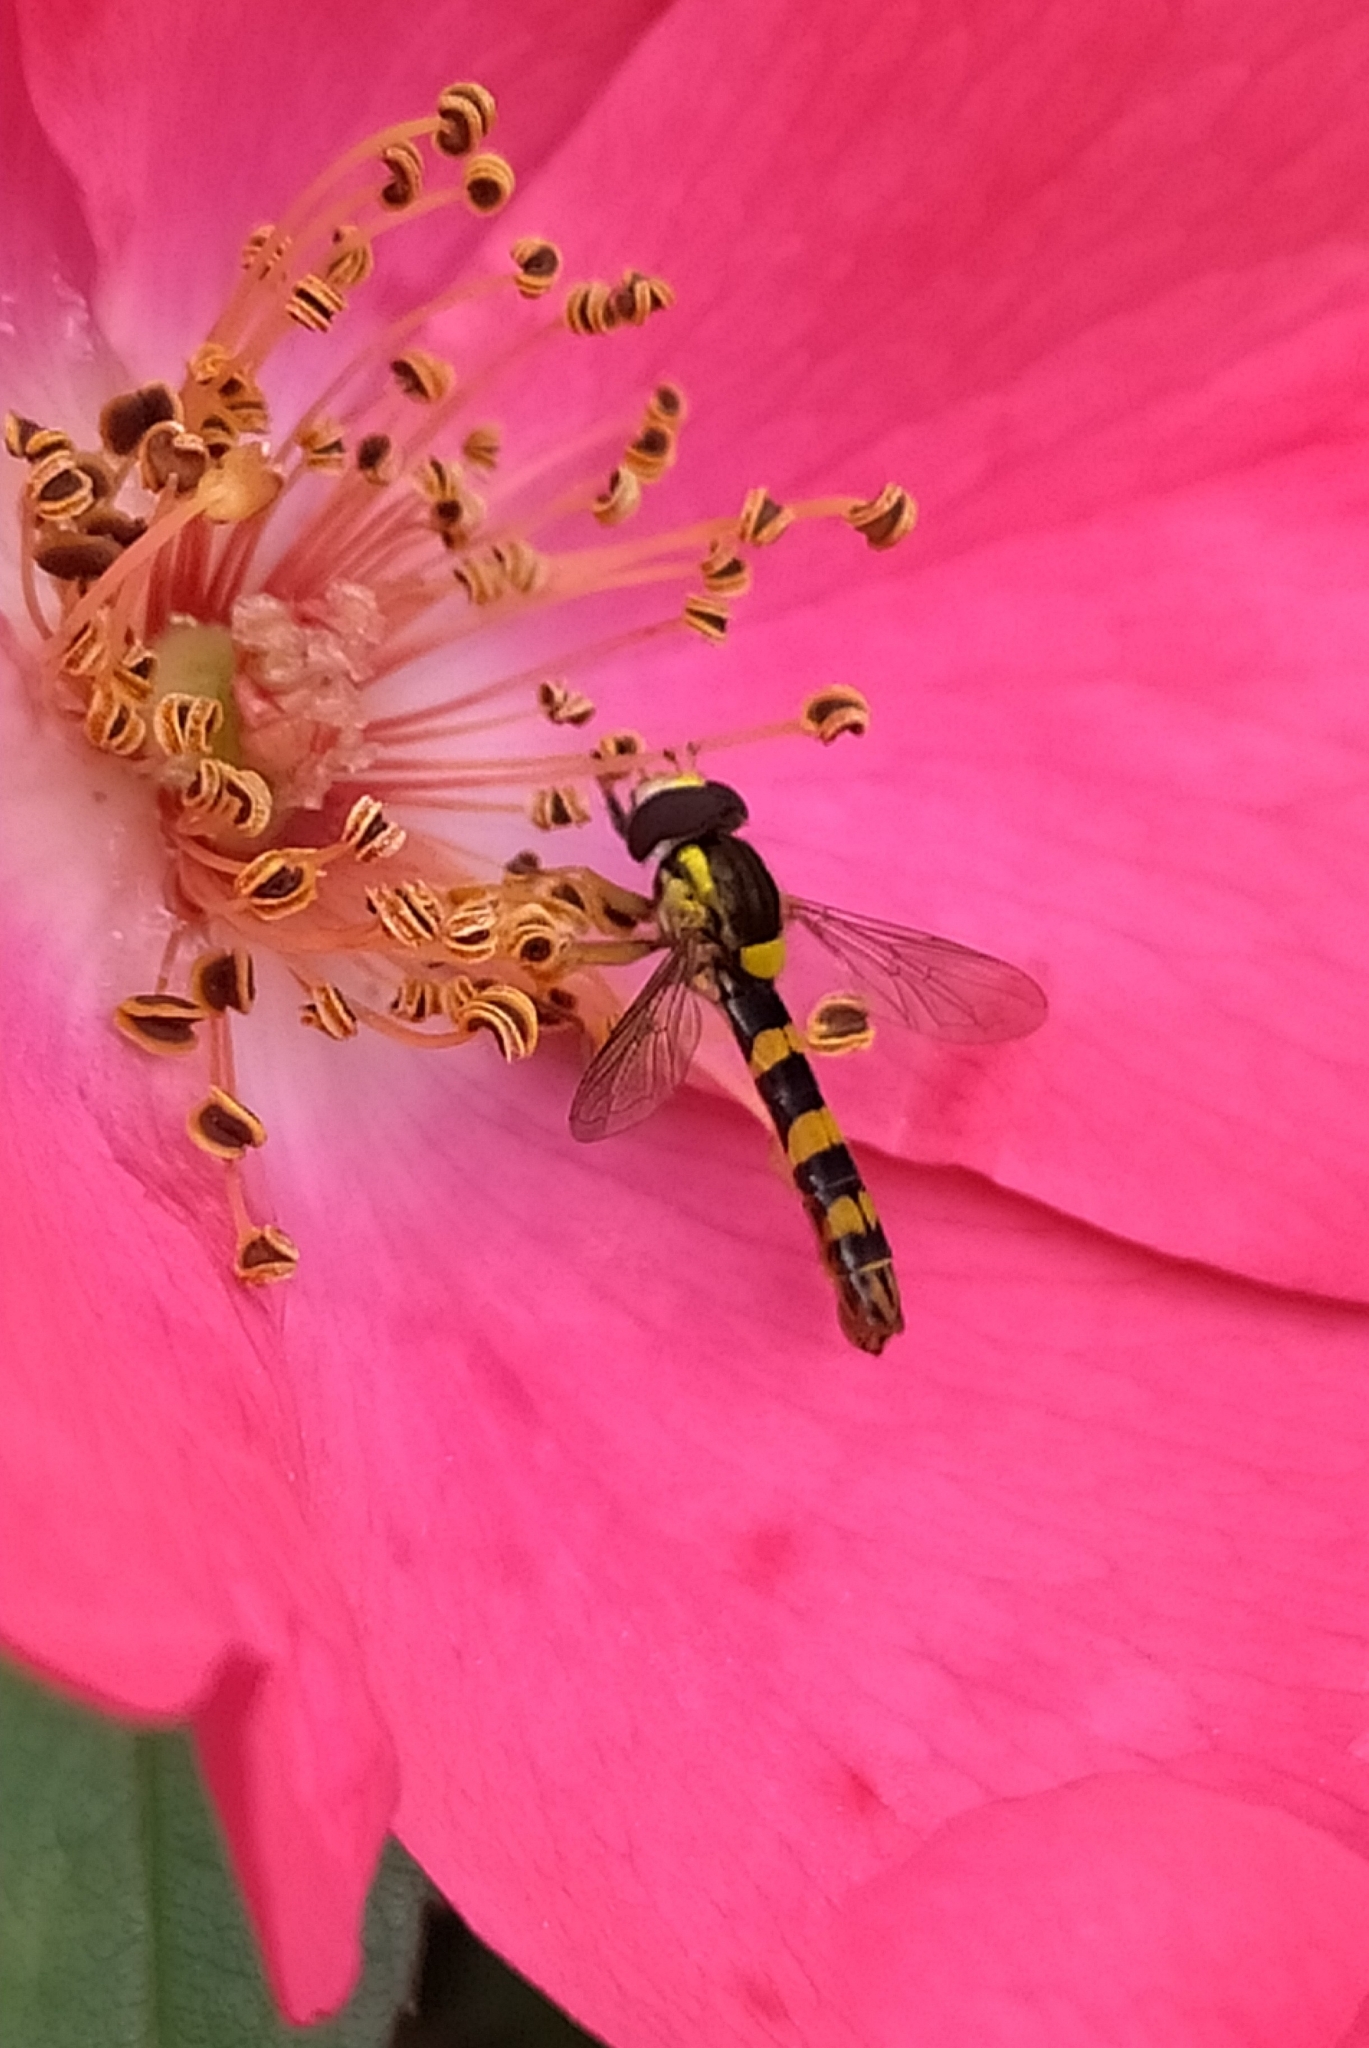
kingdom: Animalia
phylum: Arthropoda
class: Insecta
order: Diptera
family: Syrphidae
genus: Sphaerophoria
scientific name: Sphaerophoria scripta
